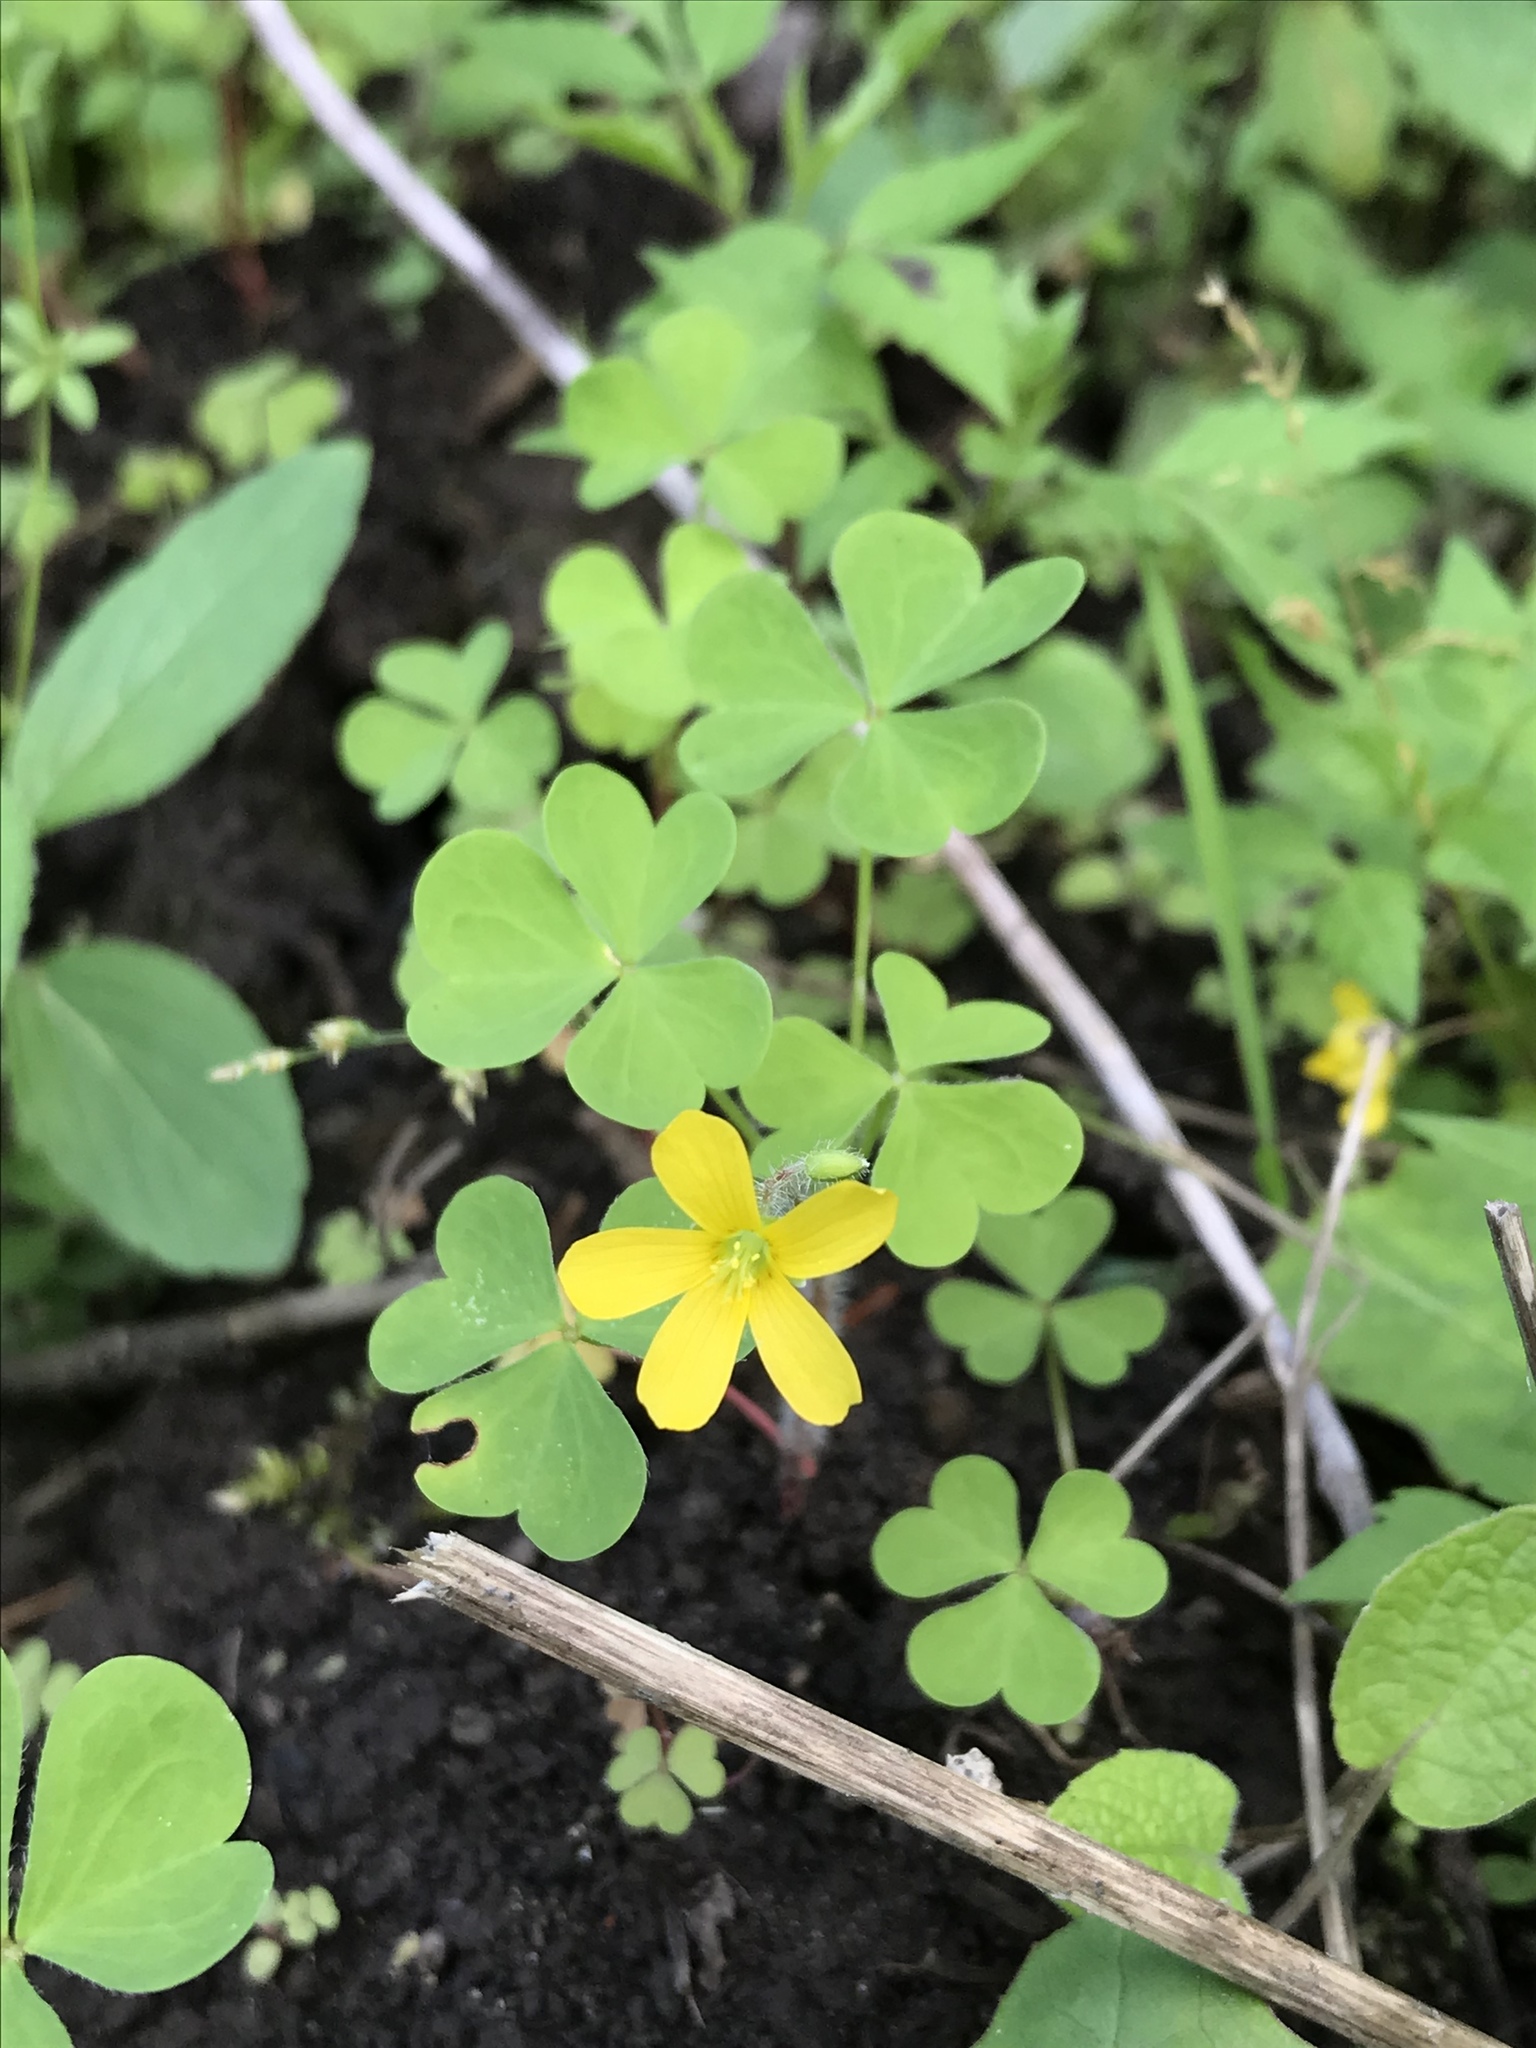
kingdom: Plantae
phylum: Tracheophyta
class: Magnoliopsida
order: Oxalidales
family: Oxalidaceae
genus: Oxalis
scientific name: Oxalis stricta
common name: Upright yellow-sorrel
